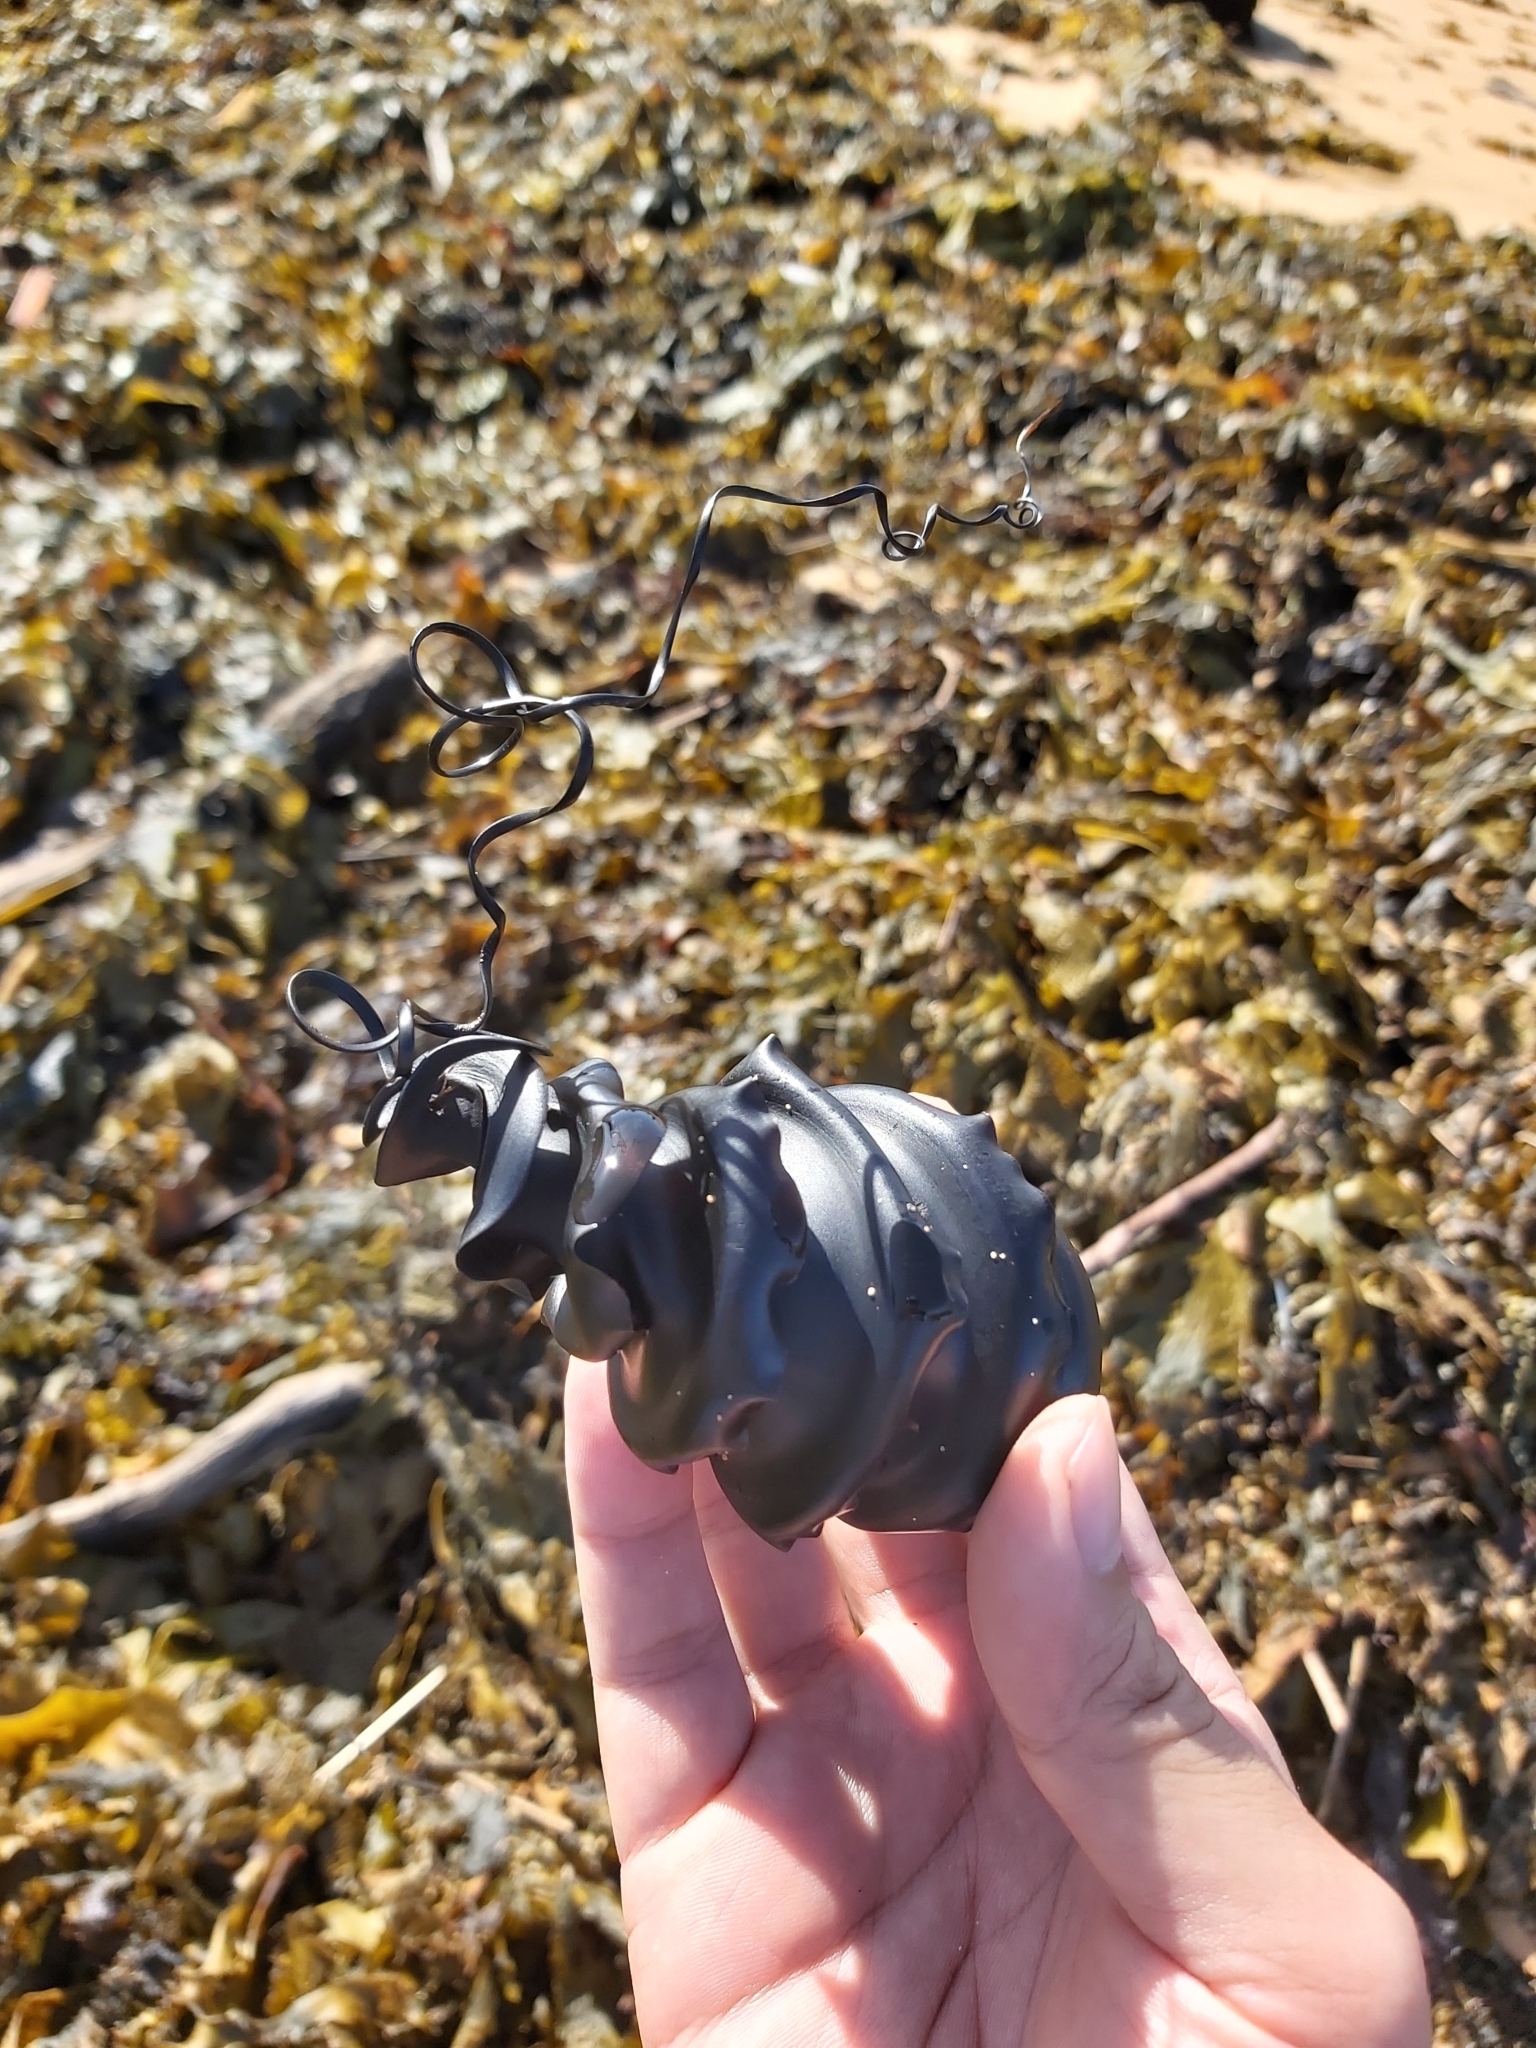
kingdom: Animalia
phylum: Chordata
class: Elasmobranchii
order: Heterodontiformes
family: Heterodontidae
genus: Heterodontus
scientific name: Heterodontus galeatus
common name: Crested bullhead shark
